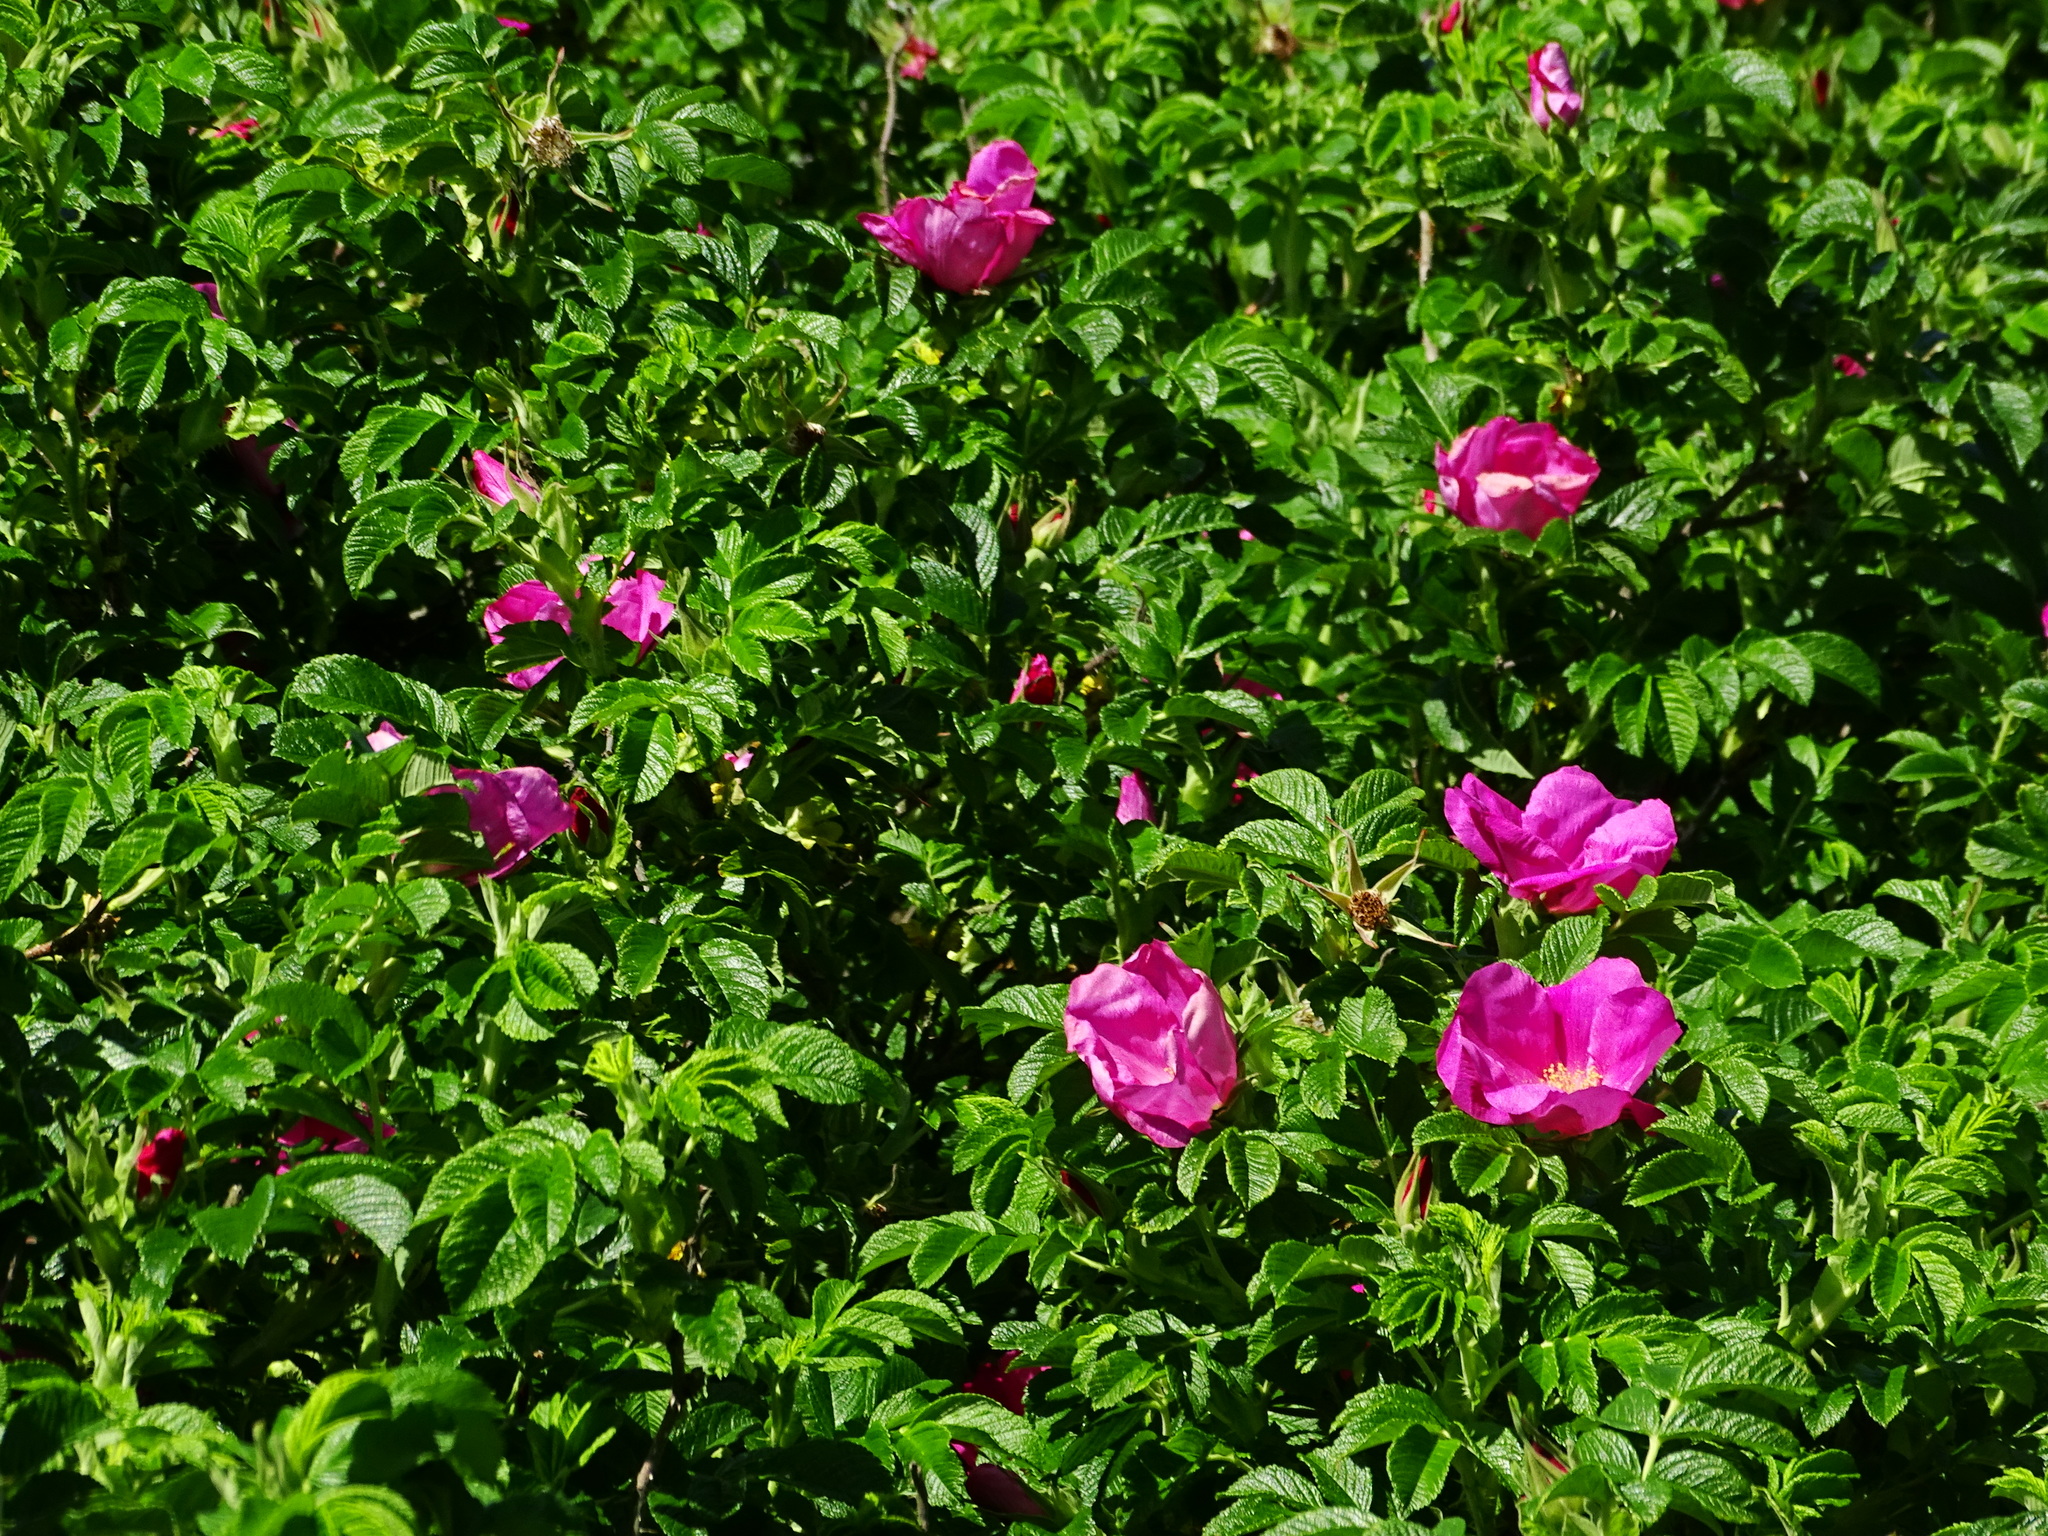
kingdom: Plantae
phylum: Tracheophyta
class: Magnoliopsida
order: Rosales
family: Rosaceae
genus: Rosa
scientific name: Rosa rugosa
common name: Japanese rose
